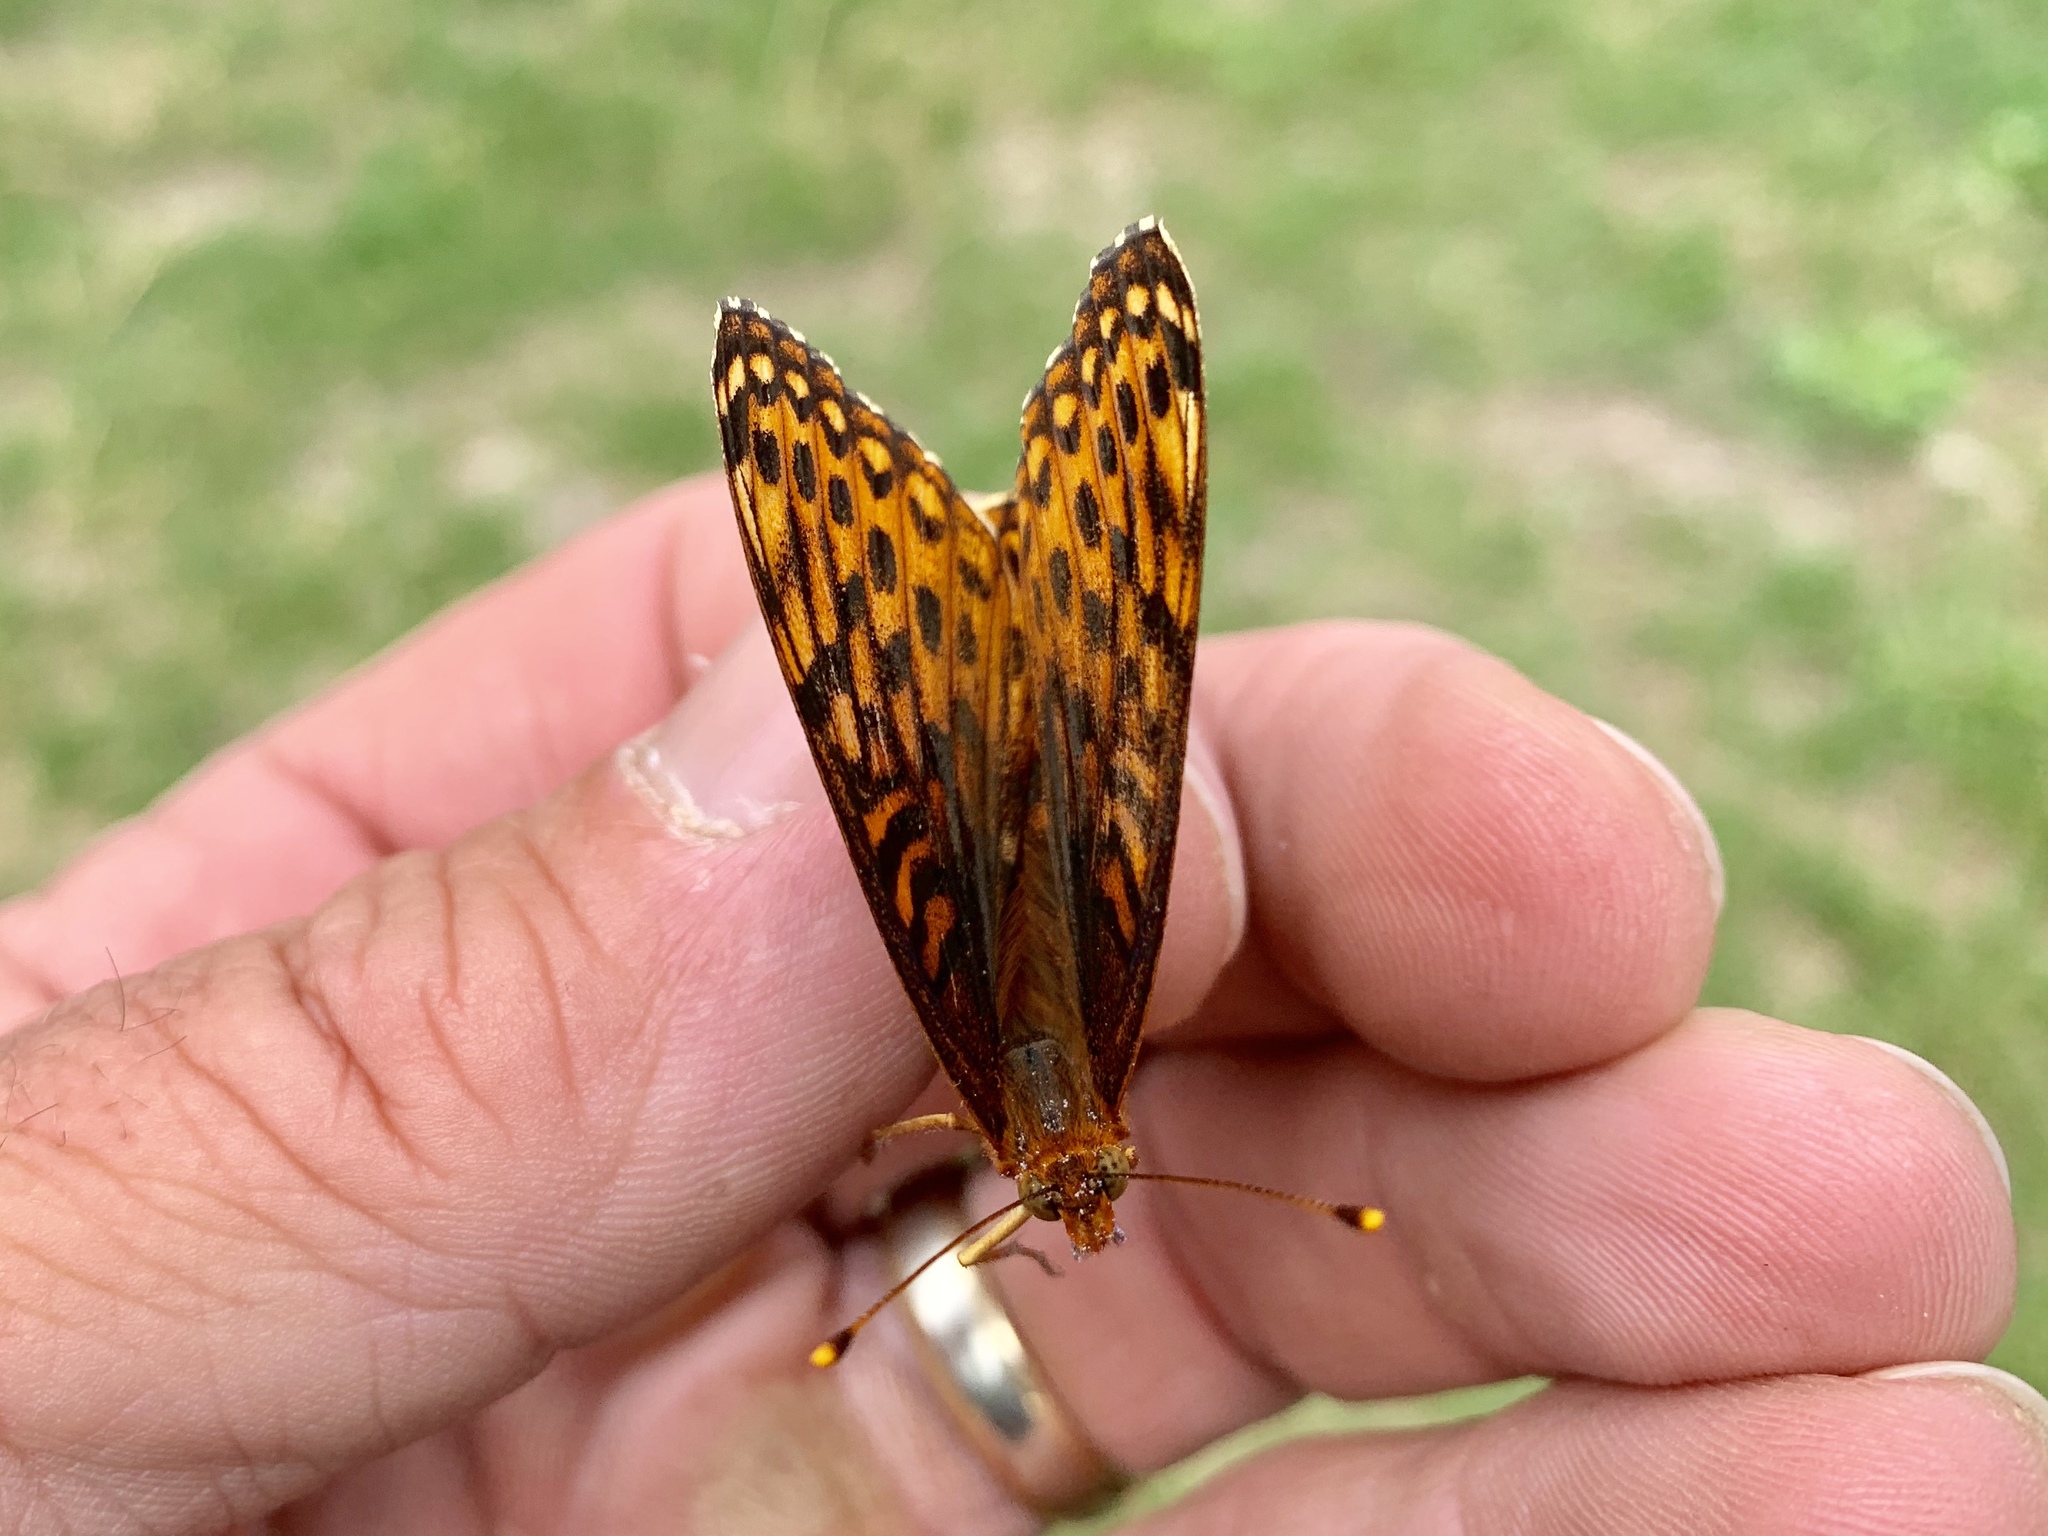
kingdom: Animalia
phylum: Arthropoda
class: Insecta
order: Lepidoptera
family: Nymphalidae
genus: Speyeria
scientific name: Speyeria atlantis
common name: Atlantis fritillary
